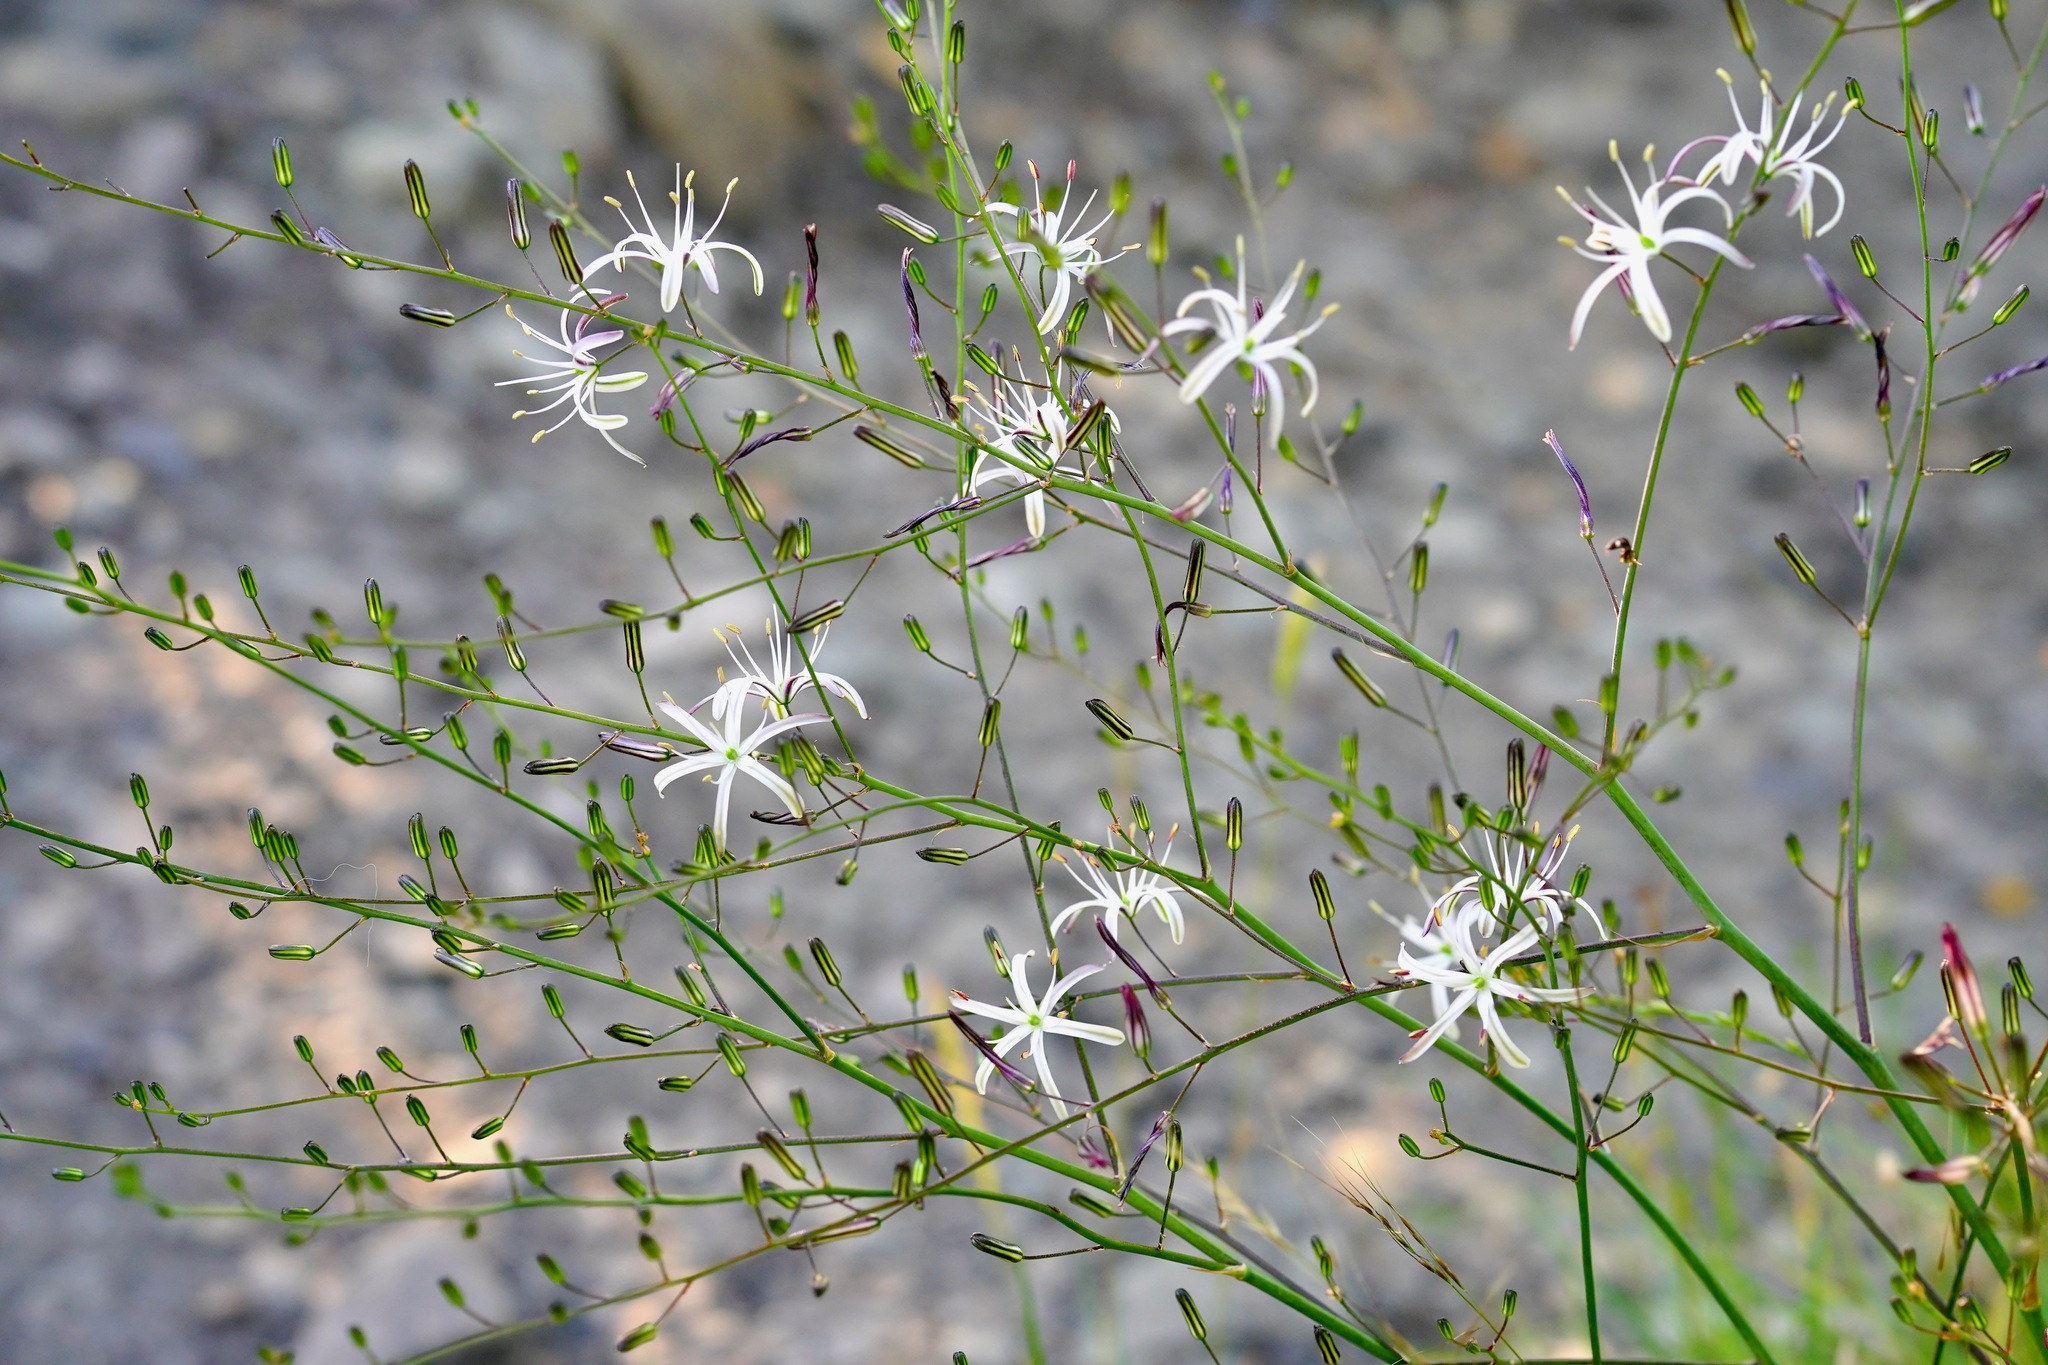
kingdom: Plantae
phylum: Tracheophyta
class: Liliopsida
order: Asparagales
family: Asparagaceae
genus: Chlorogalum
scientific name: Chlorogalum pomeridianum
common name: Amole
